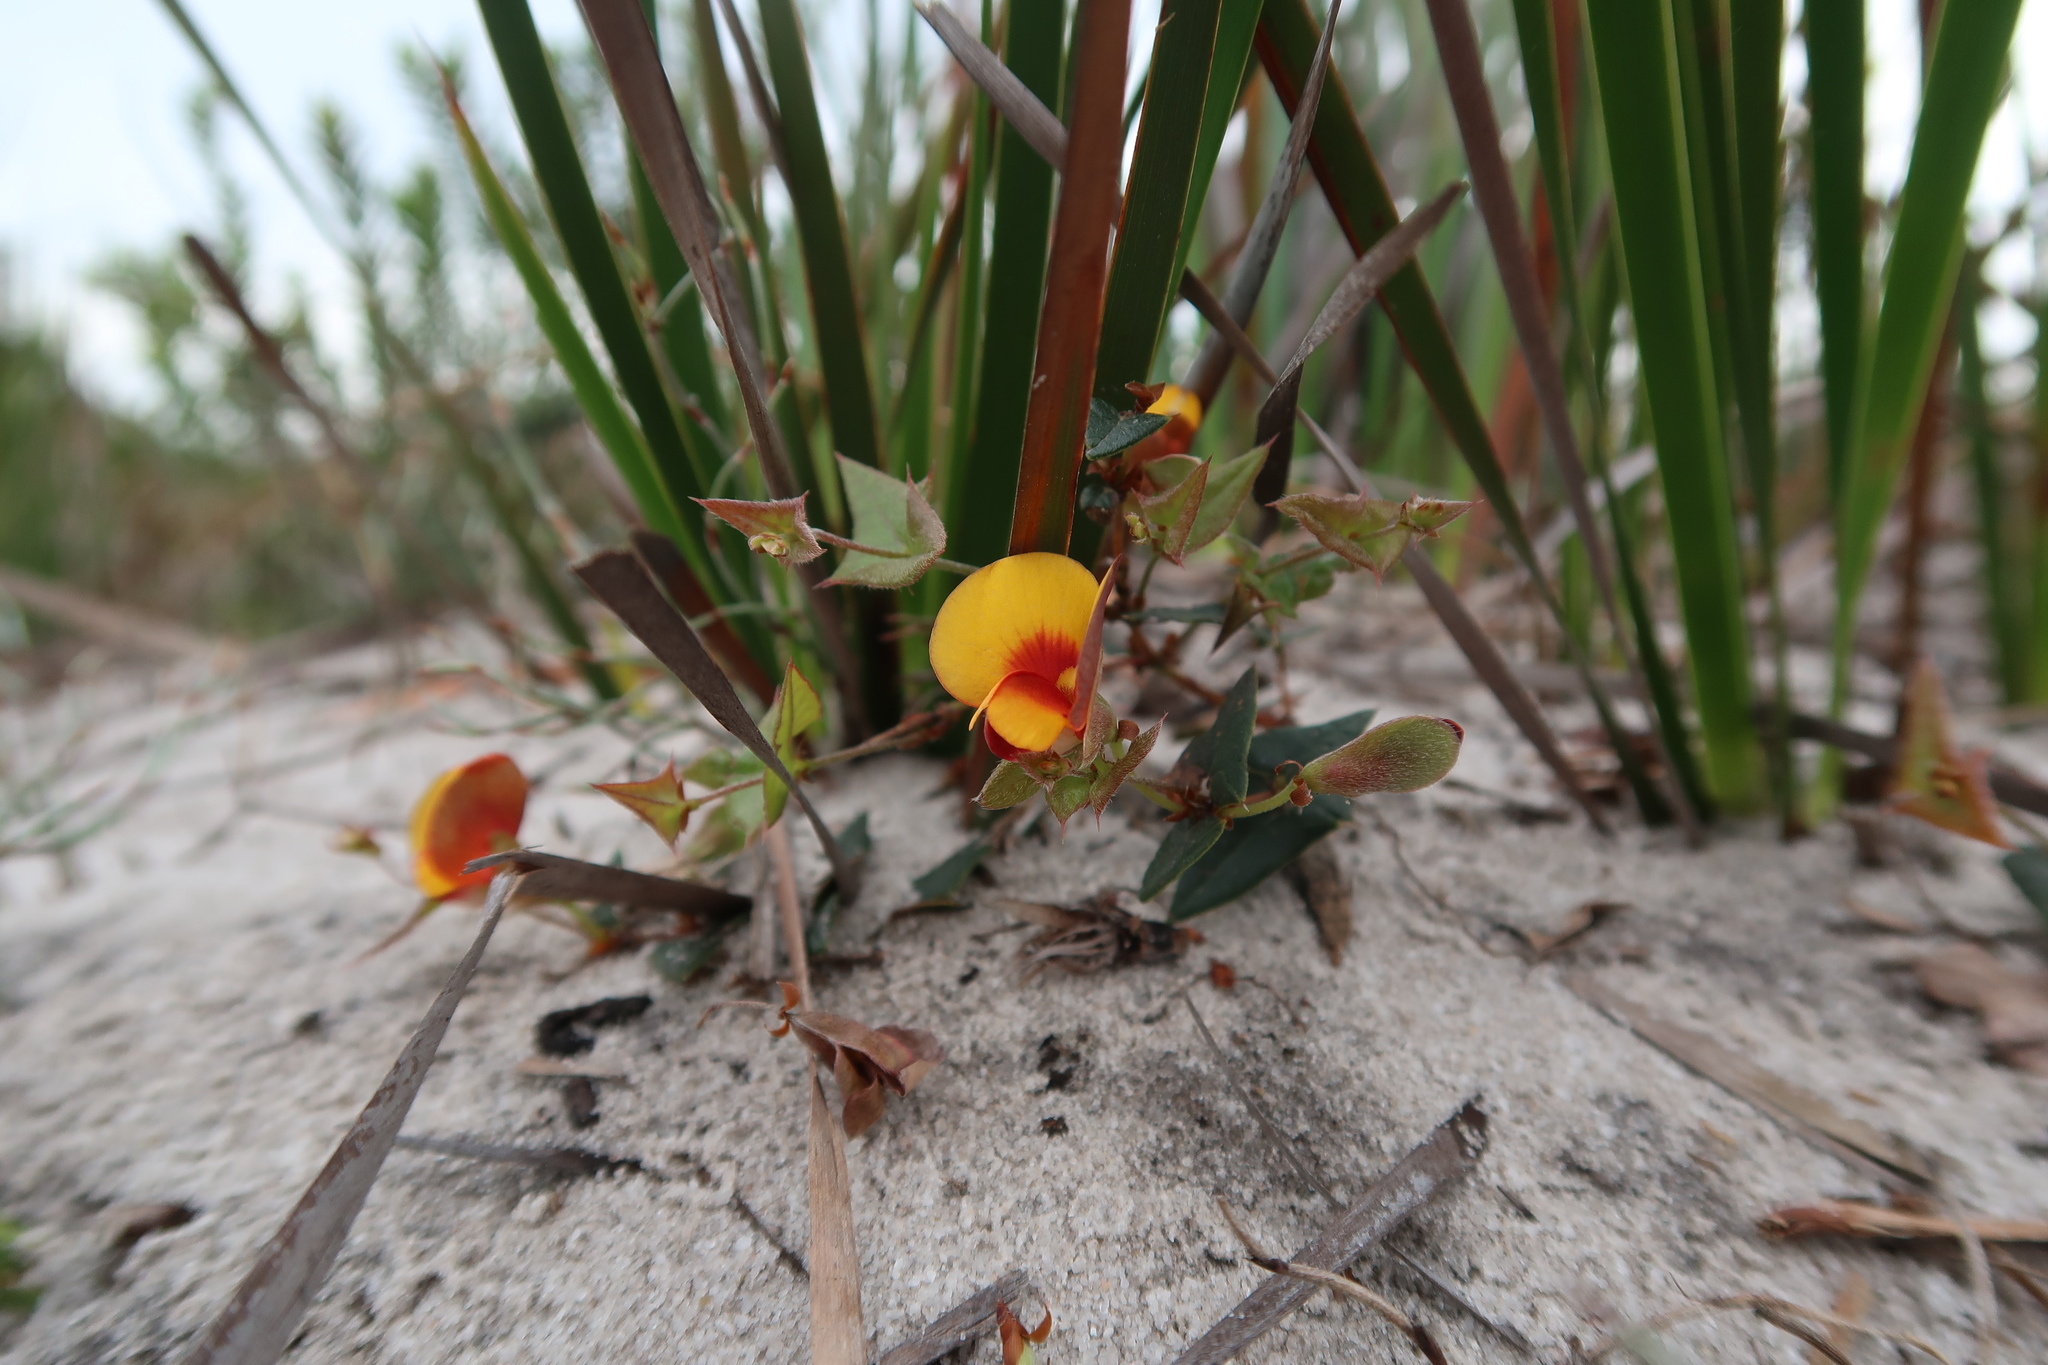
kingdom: Plantae
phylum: Tracheophyta
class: Magnoliopsida
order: Fabales
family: Fabaceae
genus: Platylobium
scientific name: Platylobium triangulare
